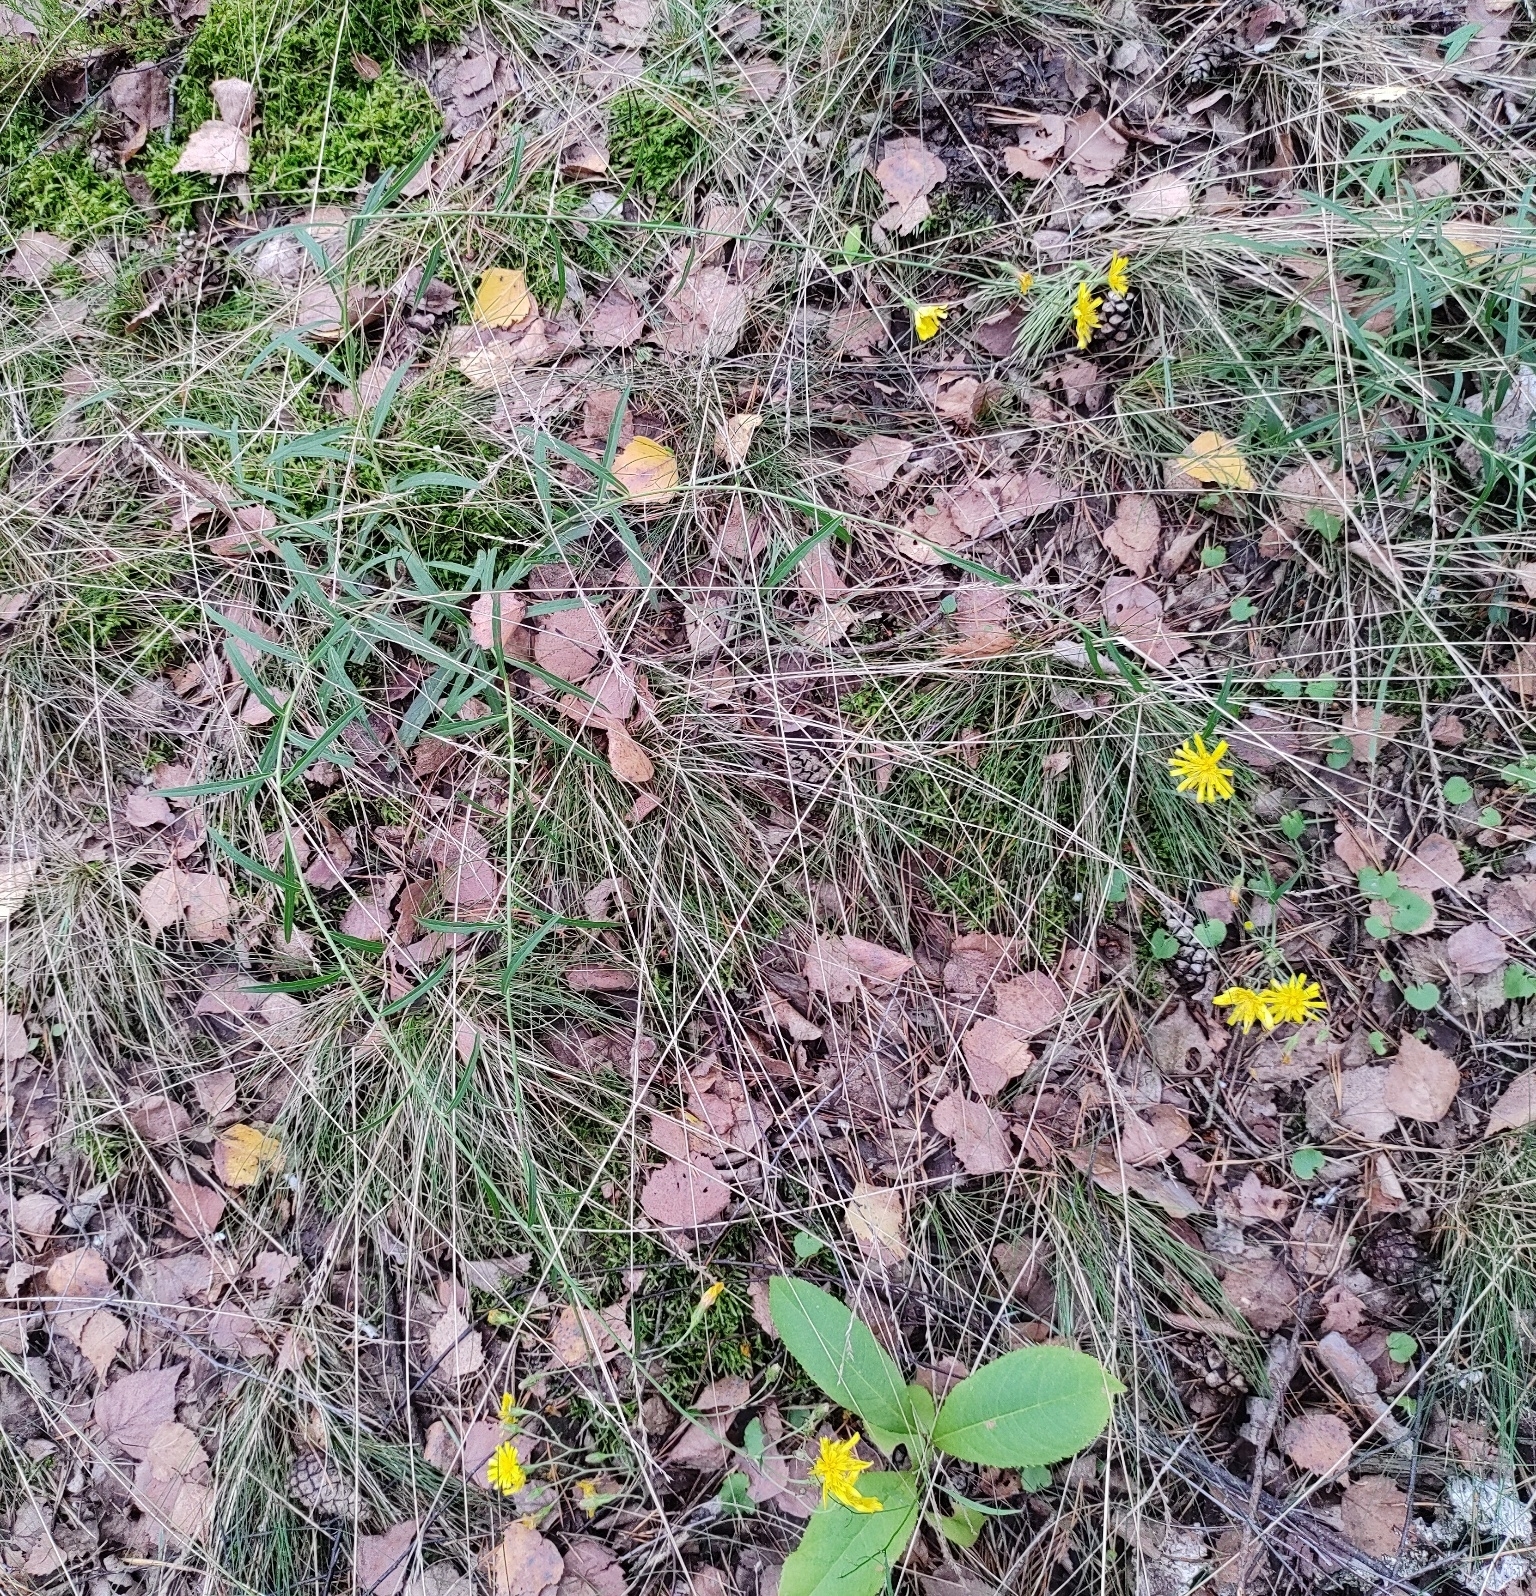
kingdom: Plantae
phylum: Tracheophyta
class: Magnoliopsida
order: Asterales
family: Asteraceae
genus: Hieracium
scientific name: Hieracium umbellatum
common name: Northern hawkweed
